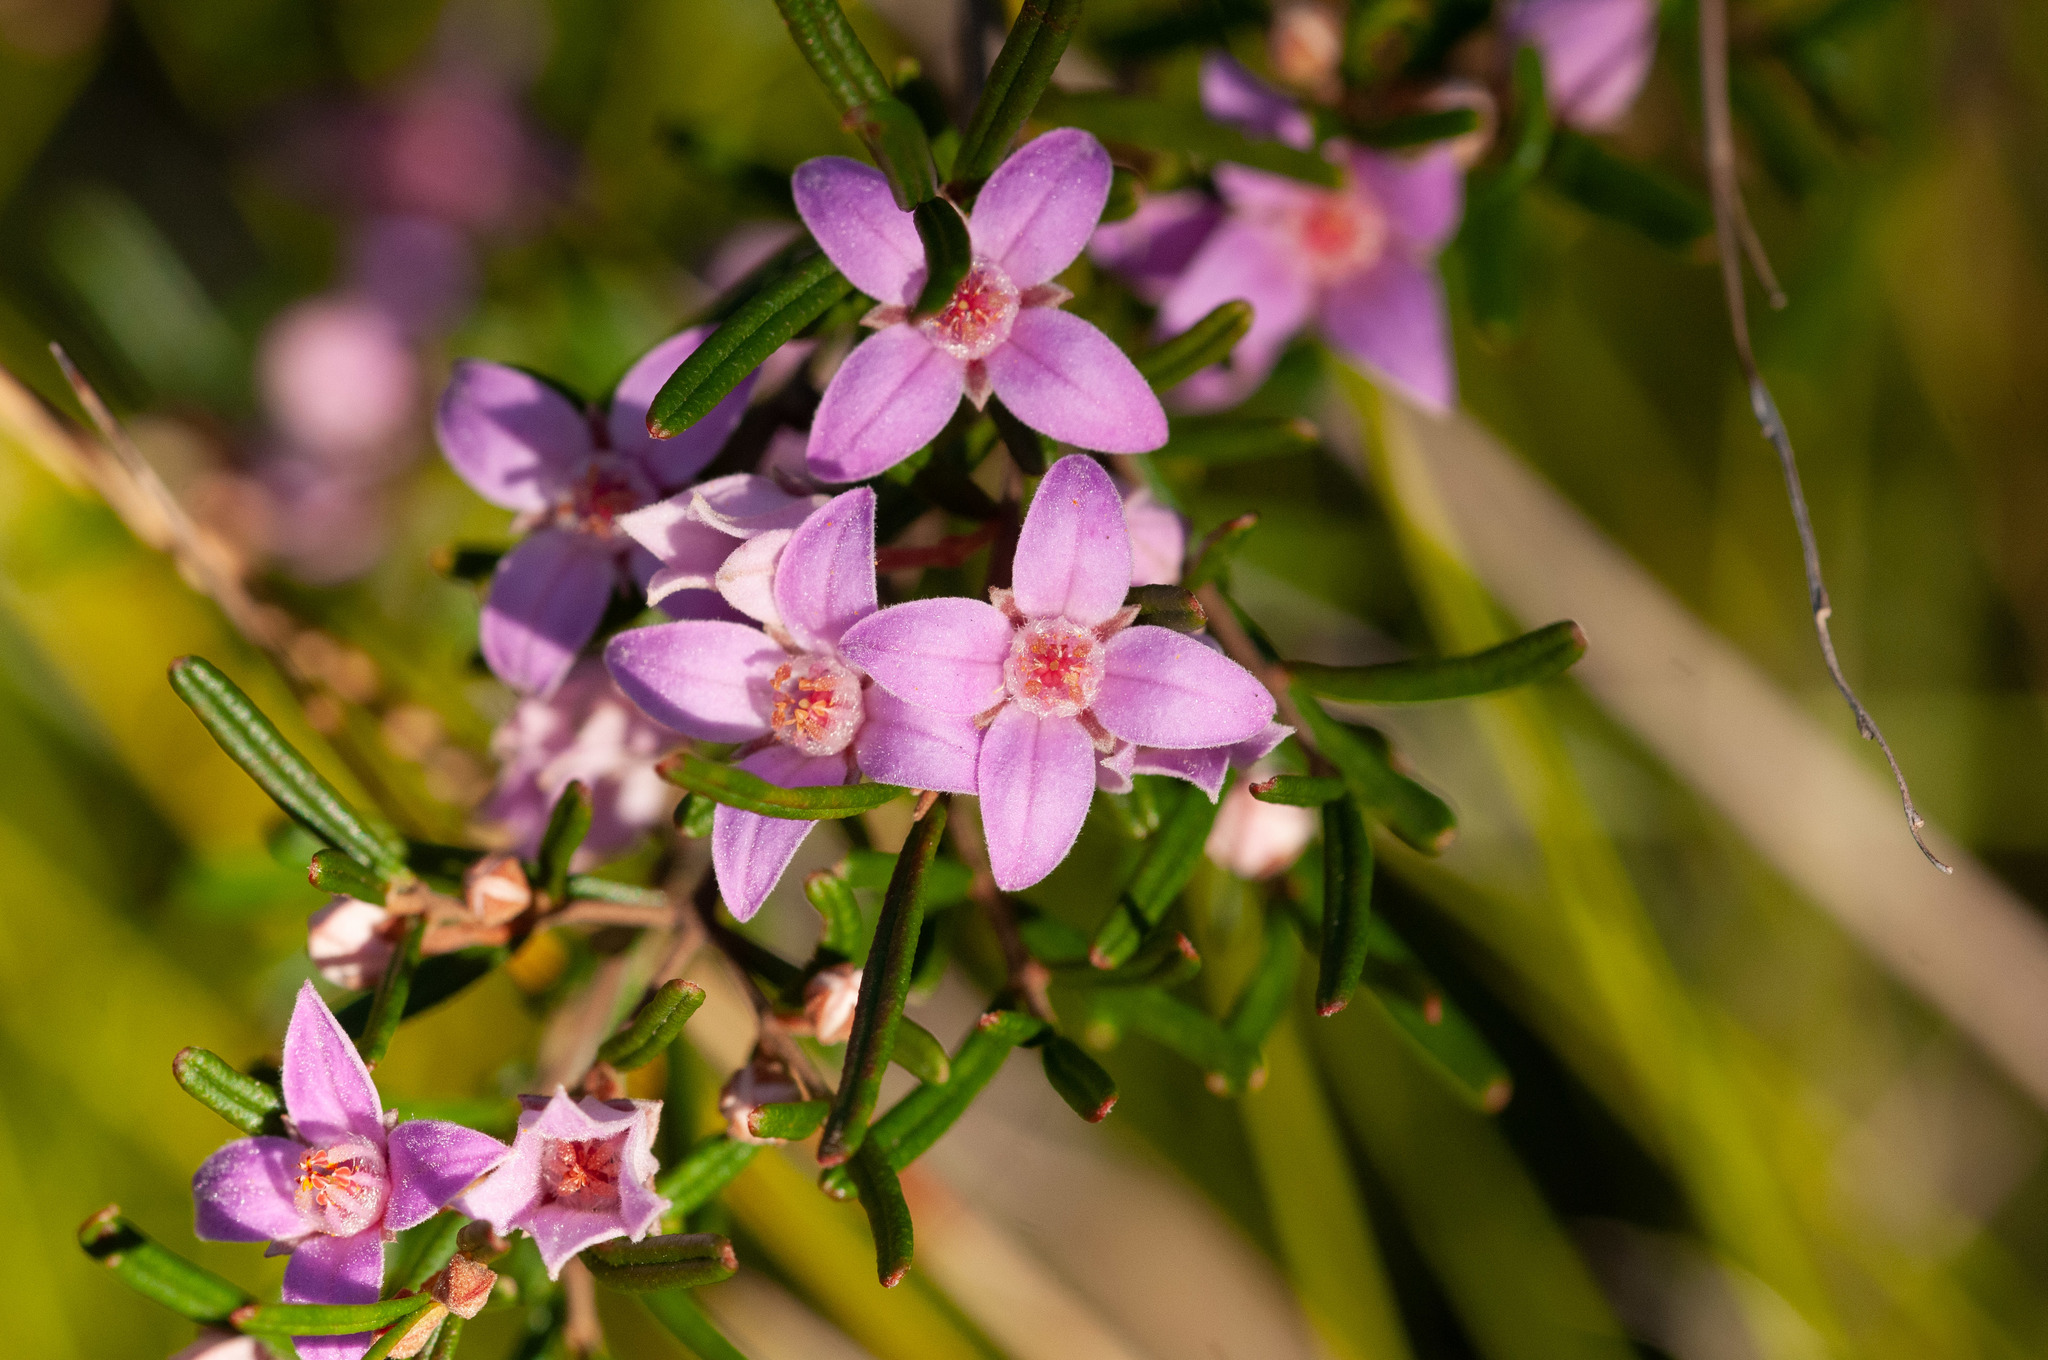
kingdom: Plantae
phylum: Tracheophyta
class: Magnoliopsida
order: Sapindales
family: Rutaceae
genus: Boronia
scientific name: Boronia rosmarinifolia
